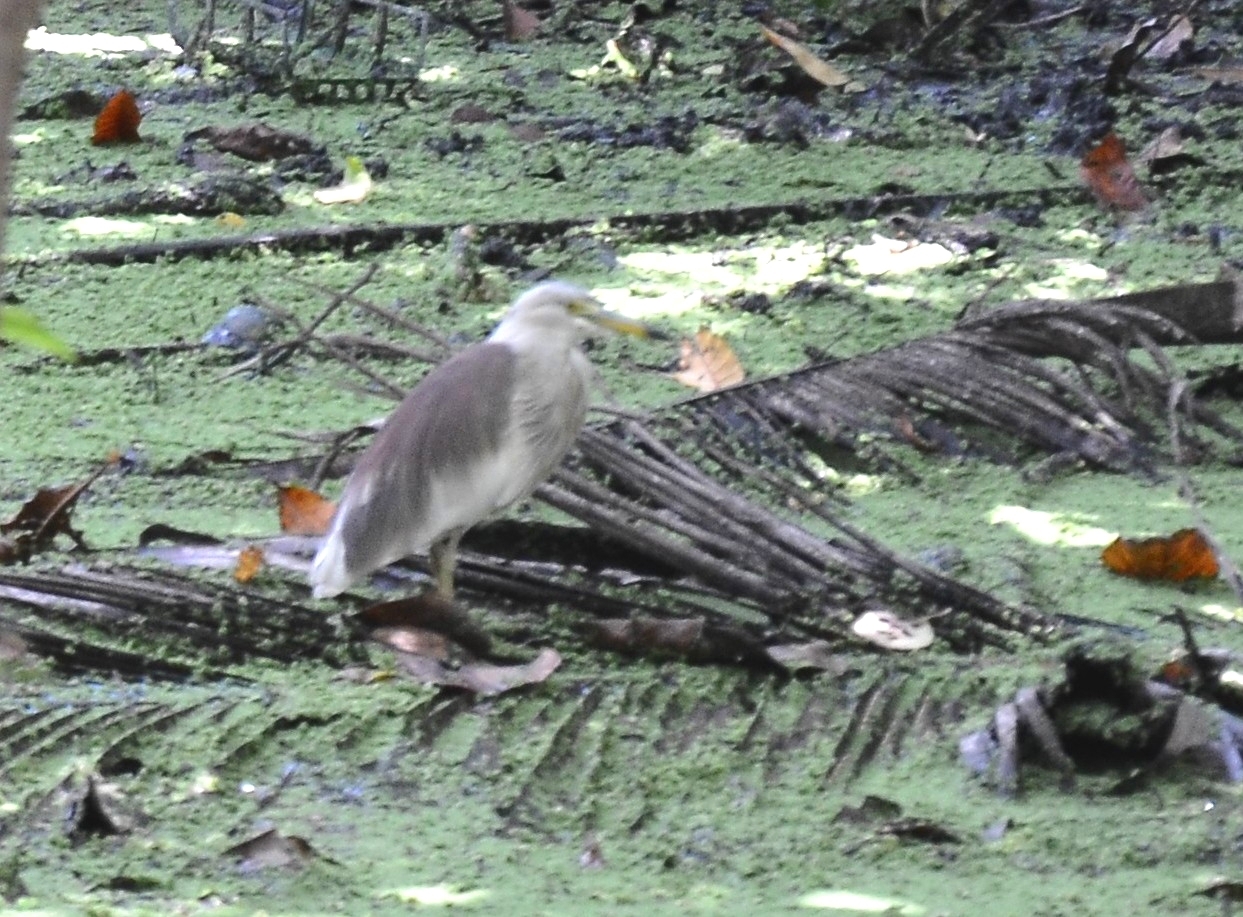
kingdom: Animalia
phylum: Chordata
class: Aves
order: Pelecaniformes
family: Ardeidae
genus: Ardeola
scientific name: Ardeola grayii
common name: Indian pond heron
